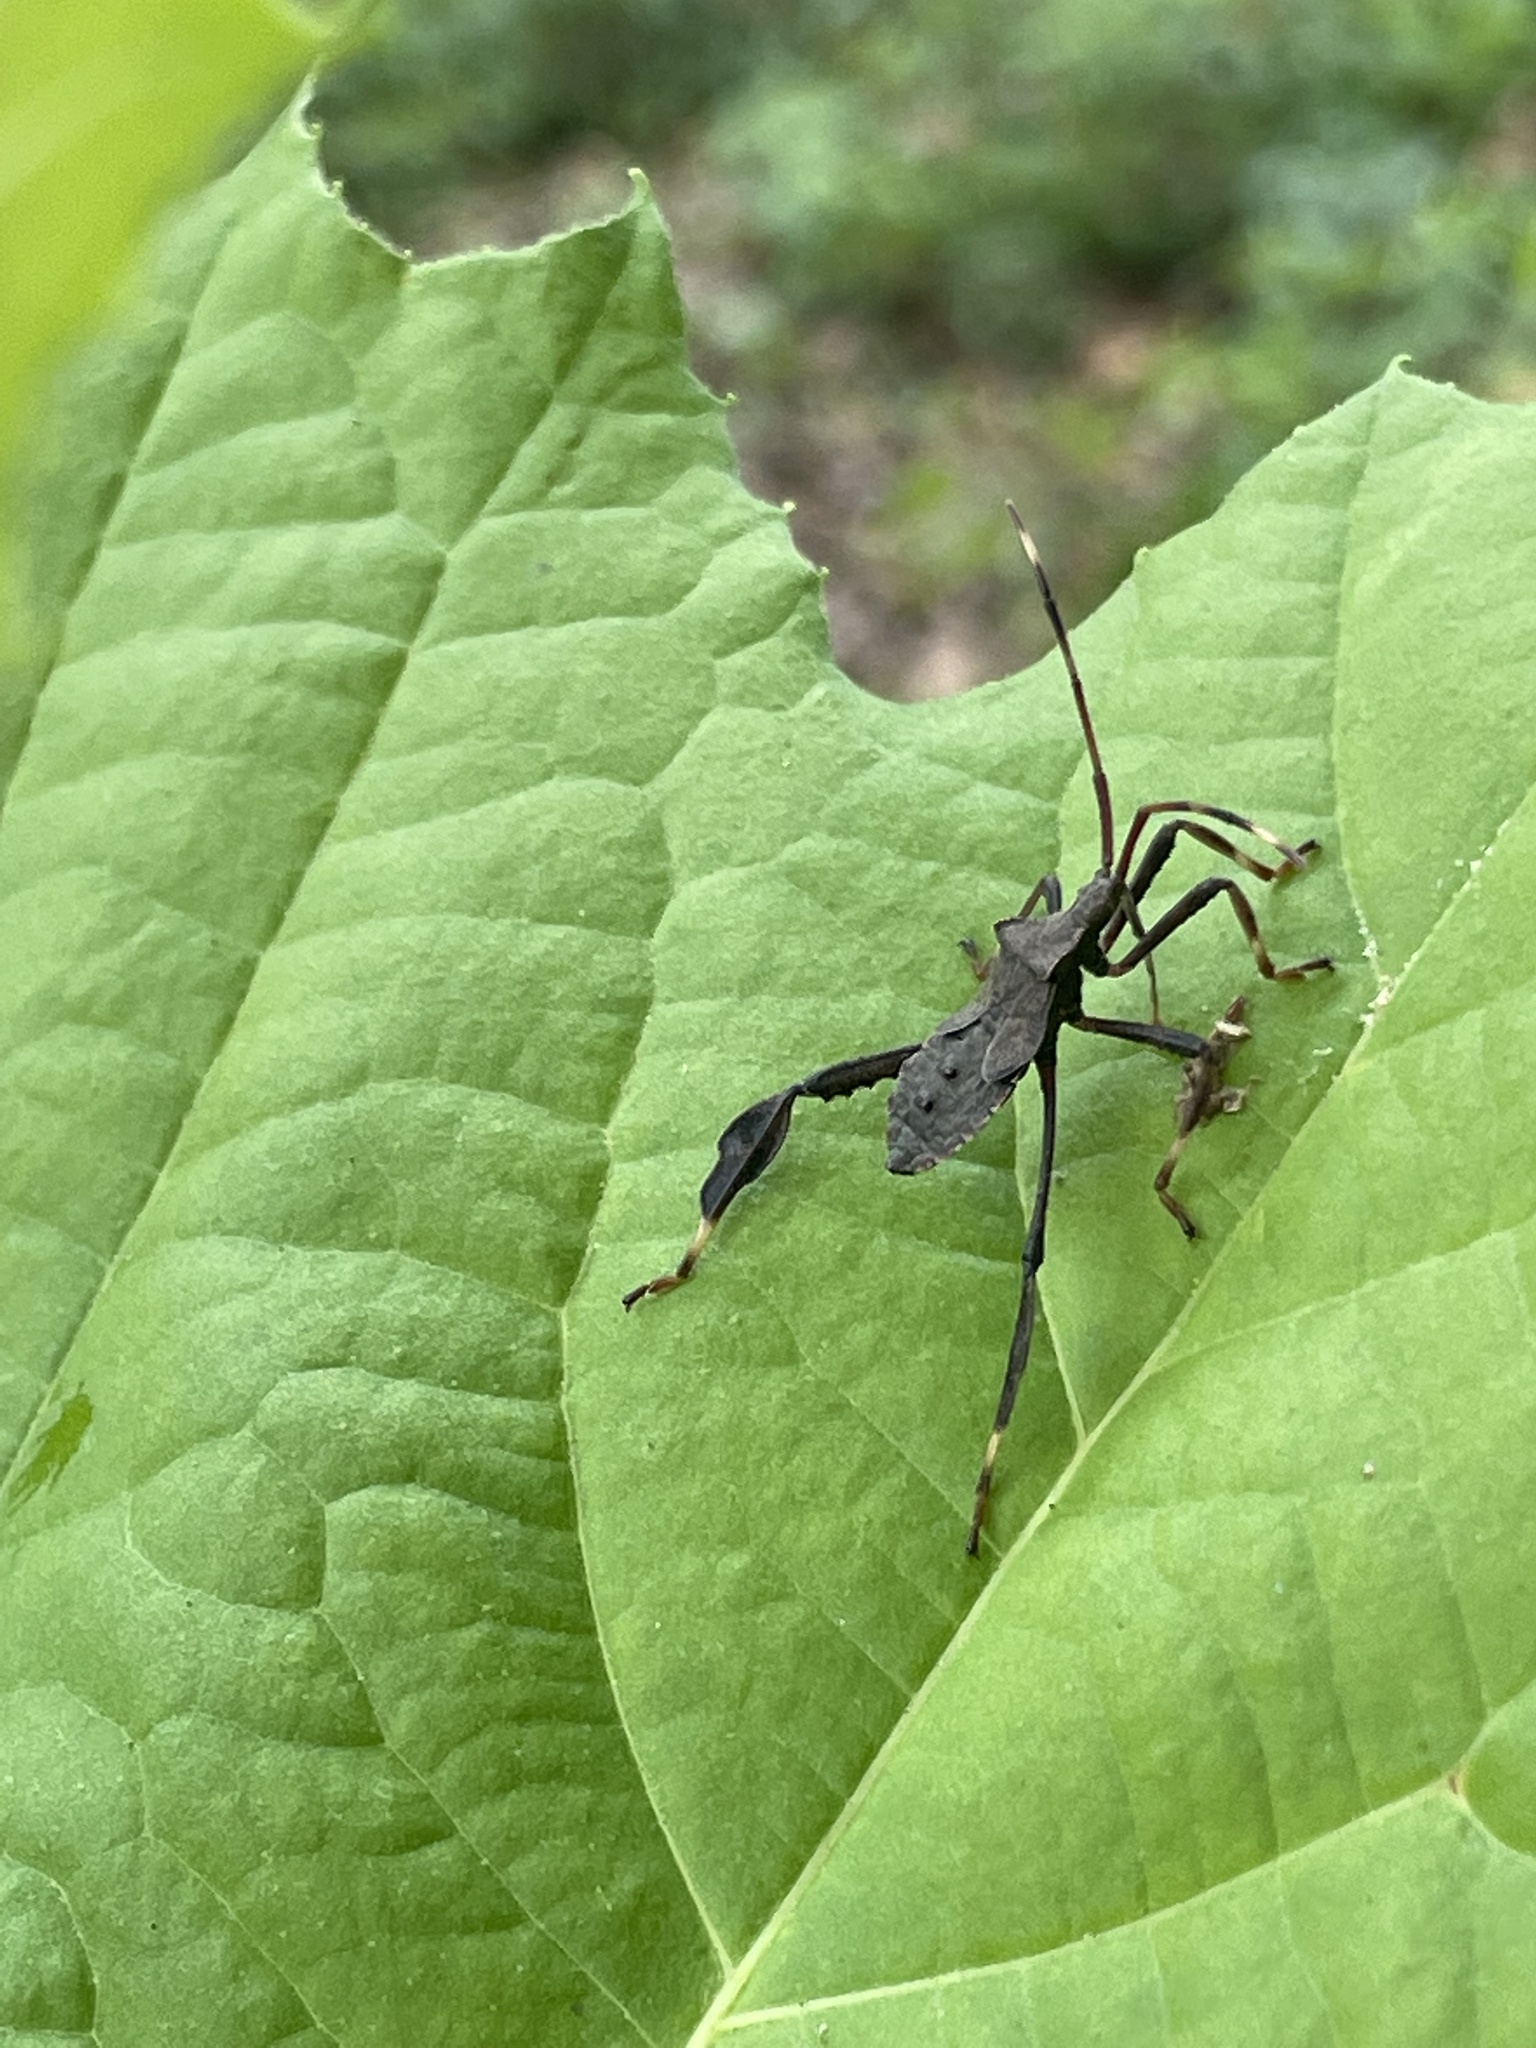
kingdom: Animalia
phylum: Arthropoda
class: Insecta
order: Hemiptera
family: Coreidae
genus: Acanthocephala
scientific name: Acanthocephala terminalis
